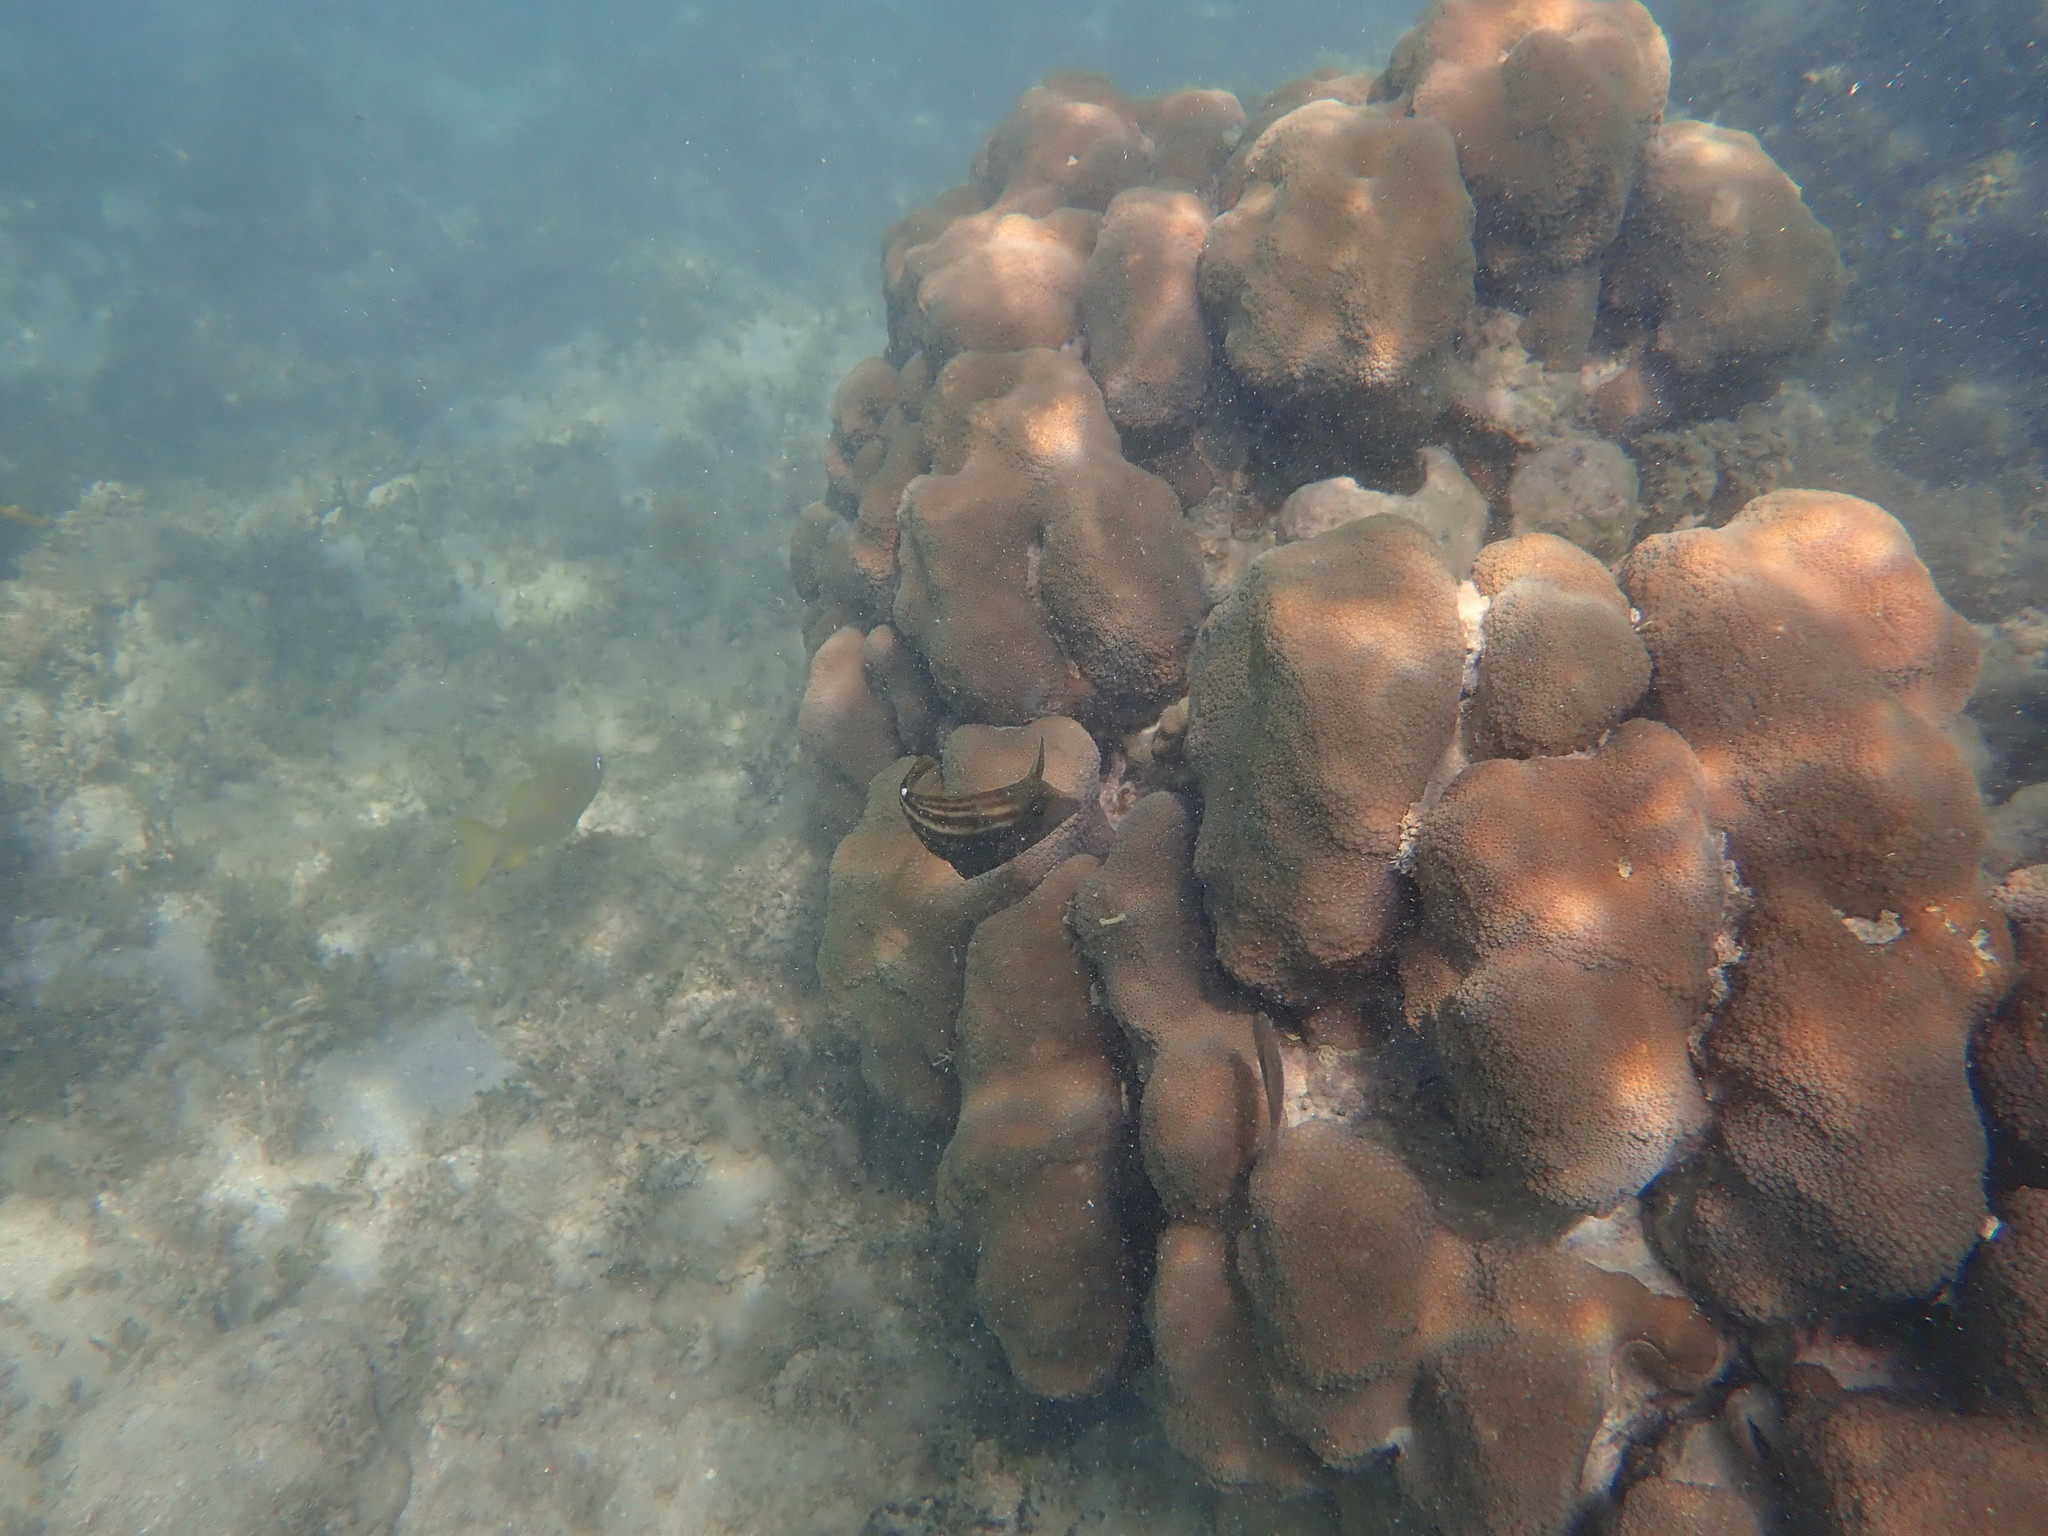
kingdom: Animalia
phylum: Cnidaria
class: Anthozoa
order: Scleractinia
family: Merulinidae
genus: Orbicella
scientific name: Orbicella annularis
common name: Boulder star coral
